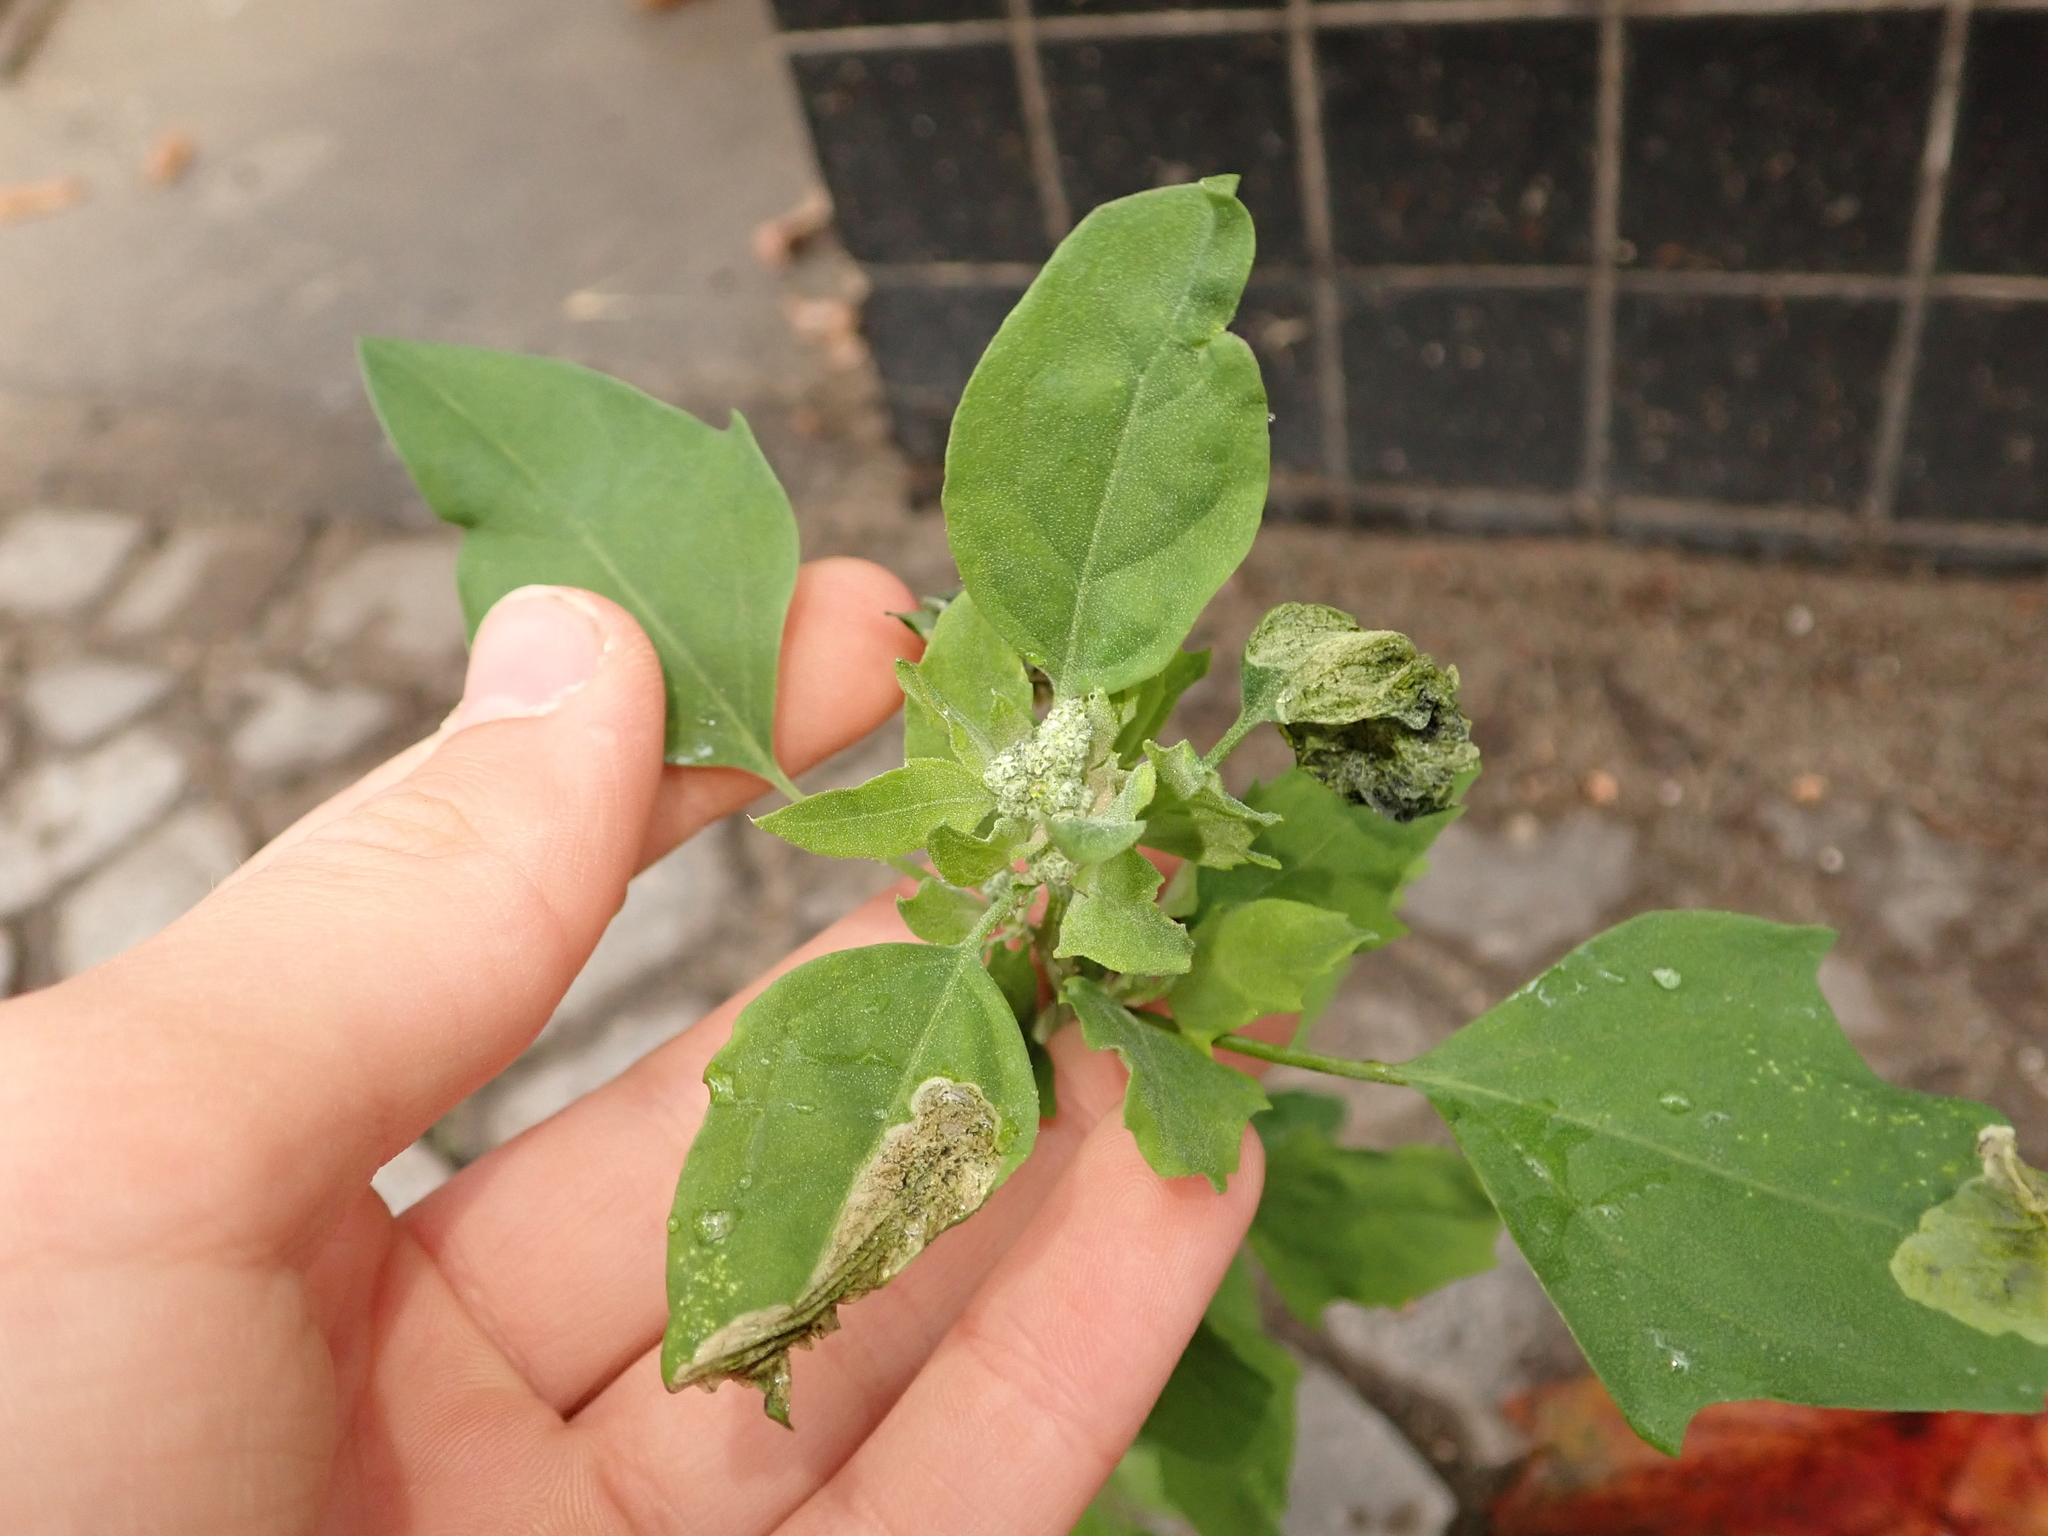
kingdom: Plantae
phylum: Tracheophyta
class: Magnoliopsida
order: Caryophyllales
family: Amaranthaceae
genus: Chenopodium
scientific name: Chenopodium album
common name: Fat-hen
